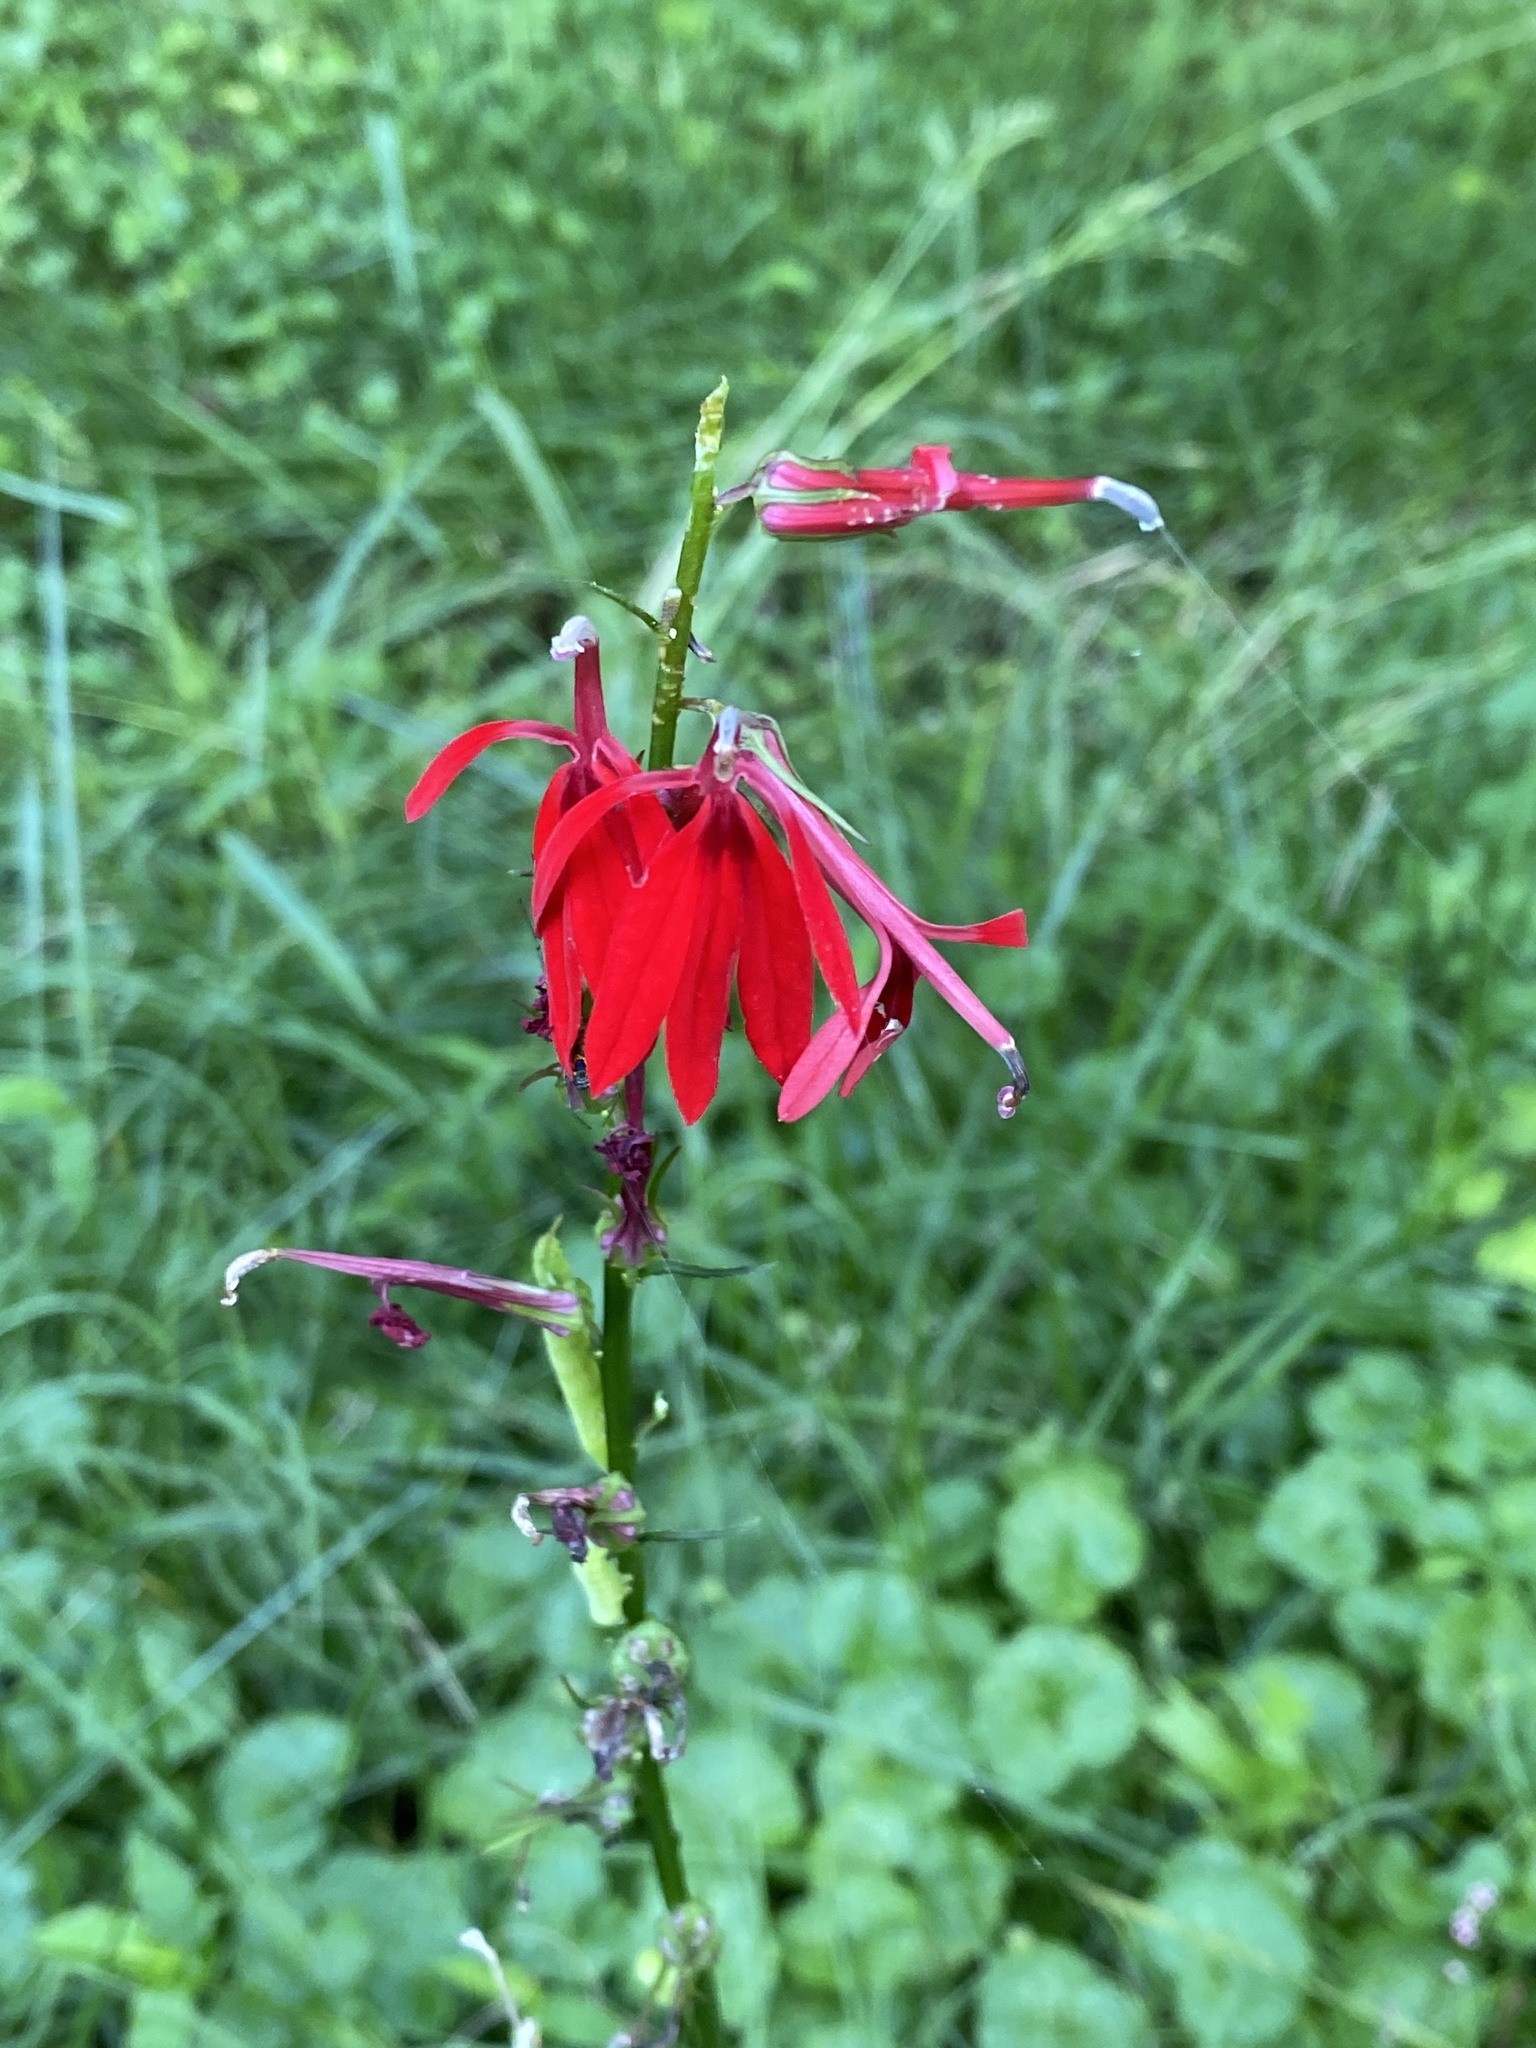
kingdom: Plantae
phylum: Tracheophyta
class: Magnoliopsida
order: Asterales
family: Campanulaceae
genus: Lobelia
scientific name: Lobelia cardinalis
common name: Cardinal flower
